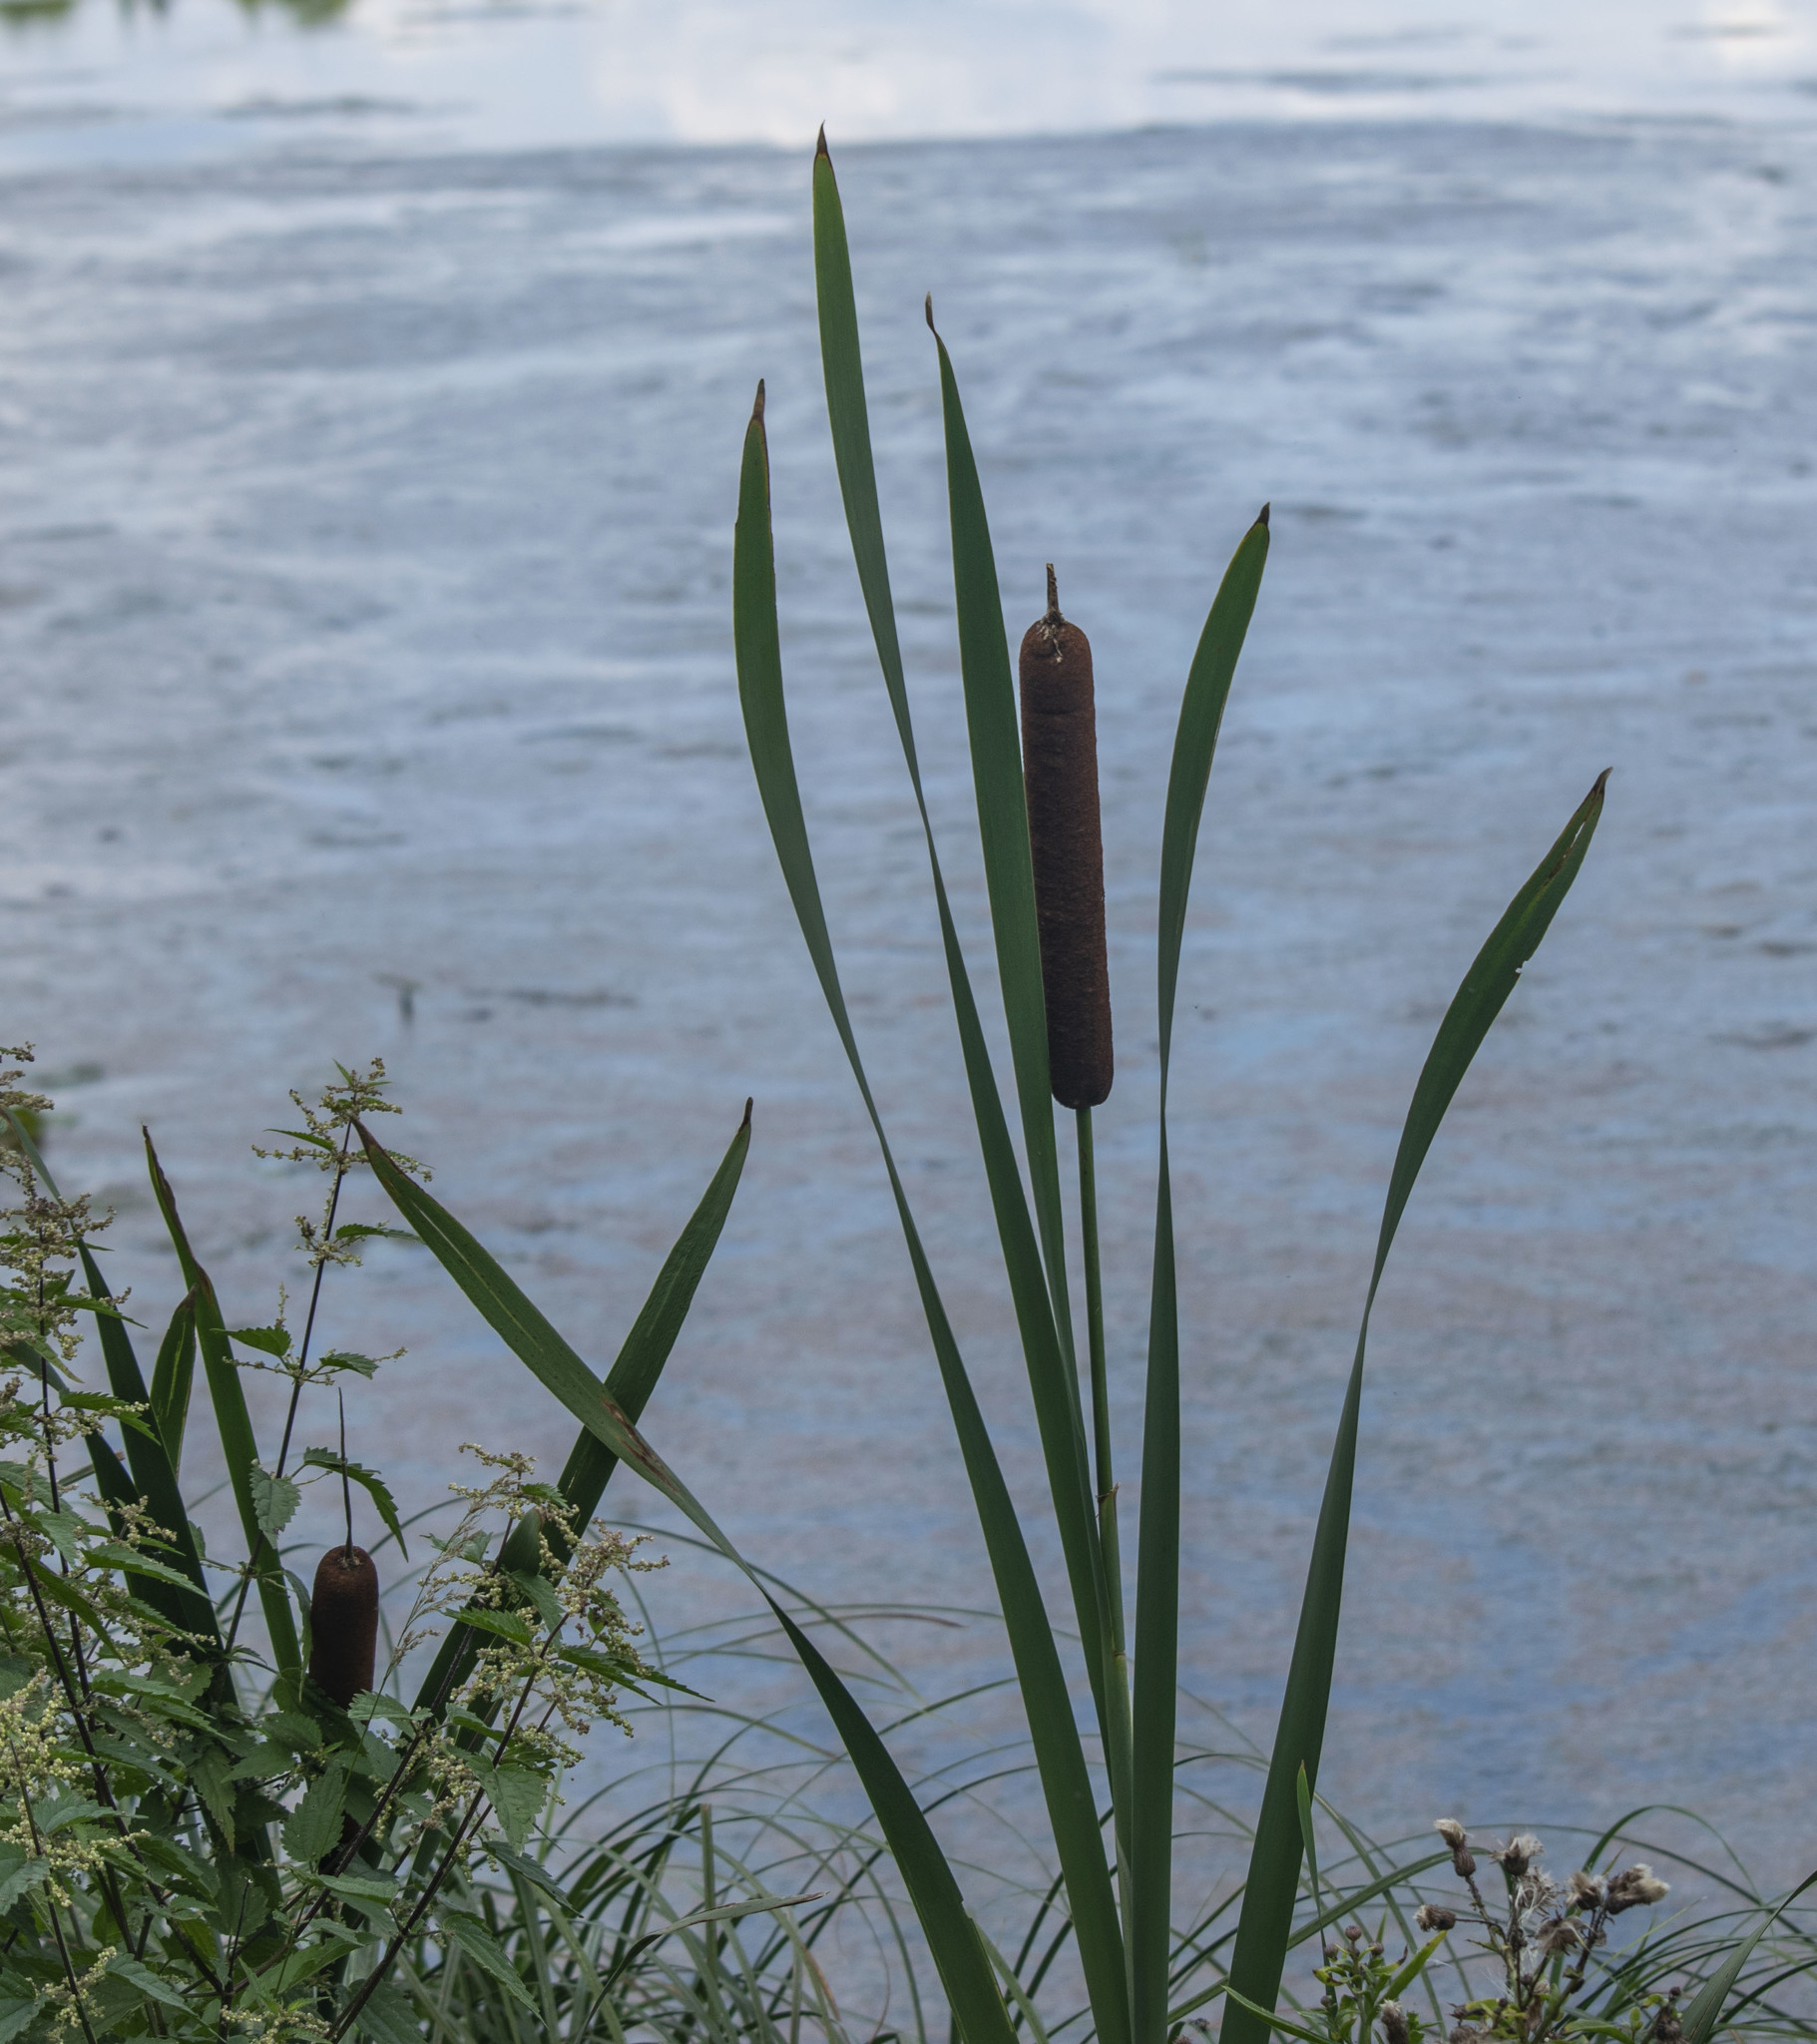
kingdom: Plantae
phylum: Tracheophyta
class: Liliopsida
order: Poales
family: Typhaceae
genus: Typha
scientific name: Typha latifolia
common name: Broadleaf cattail
